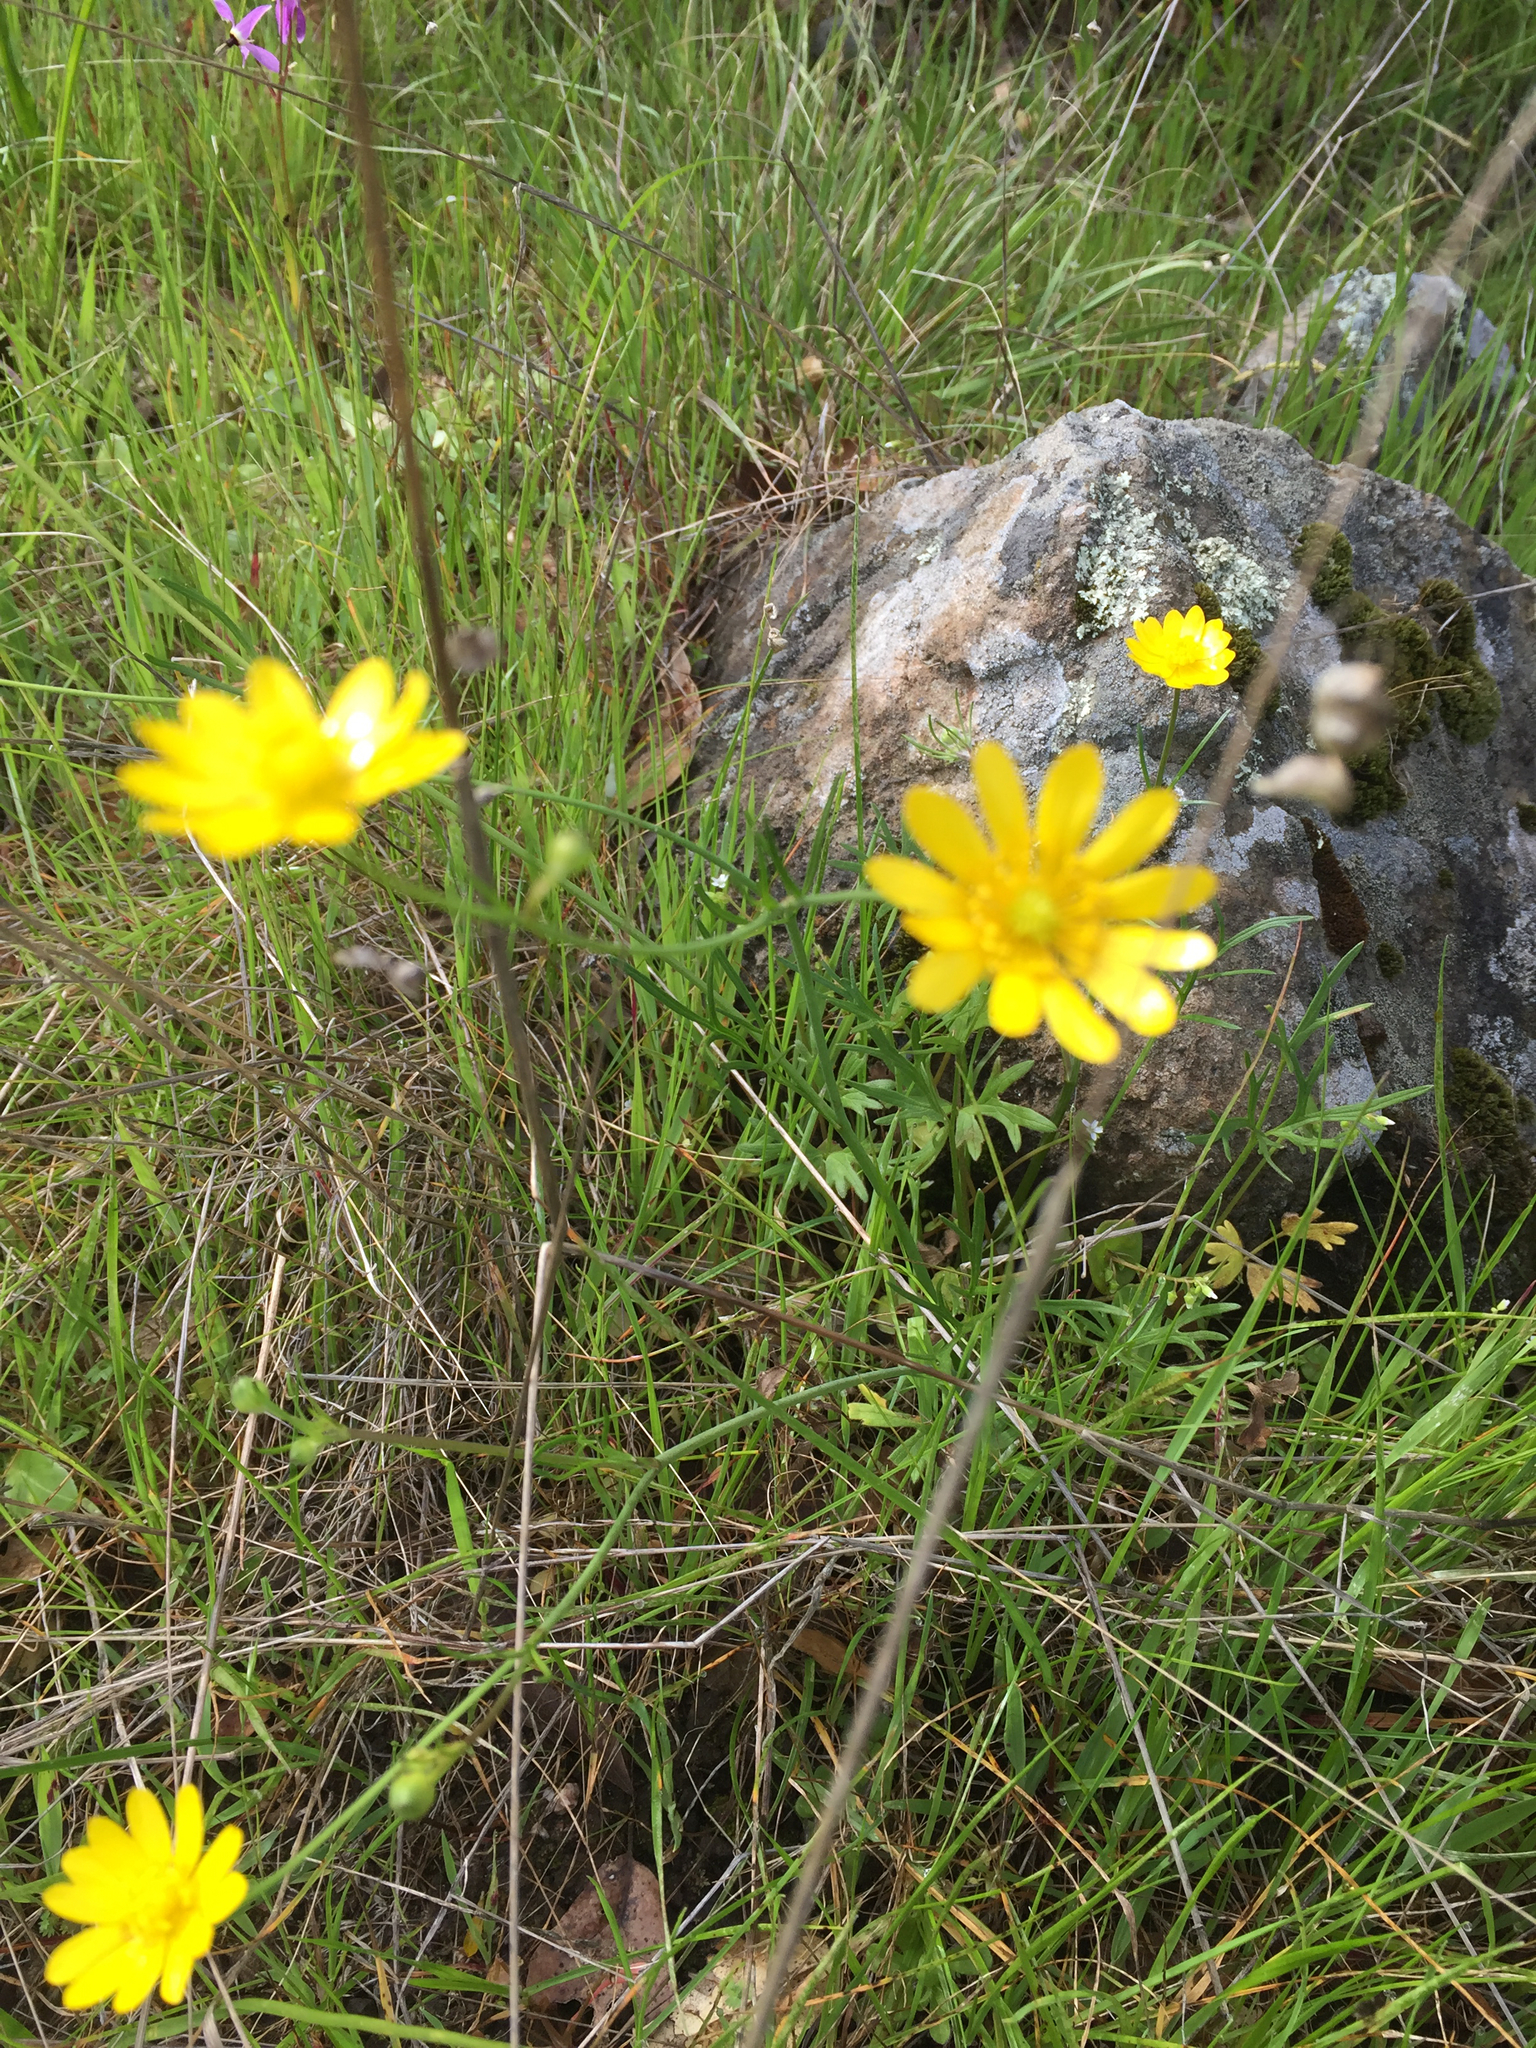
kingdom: Plantae
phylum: Tracheophyta
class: Magnoliopsida
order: Ranunculales
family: Ranunculaceae
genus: Ranunculus
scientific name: Ranunculus californicus
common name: California buttercup
